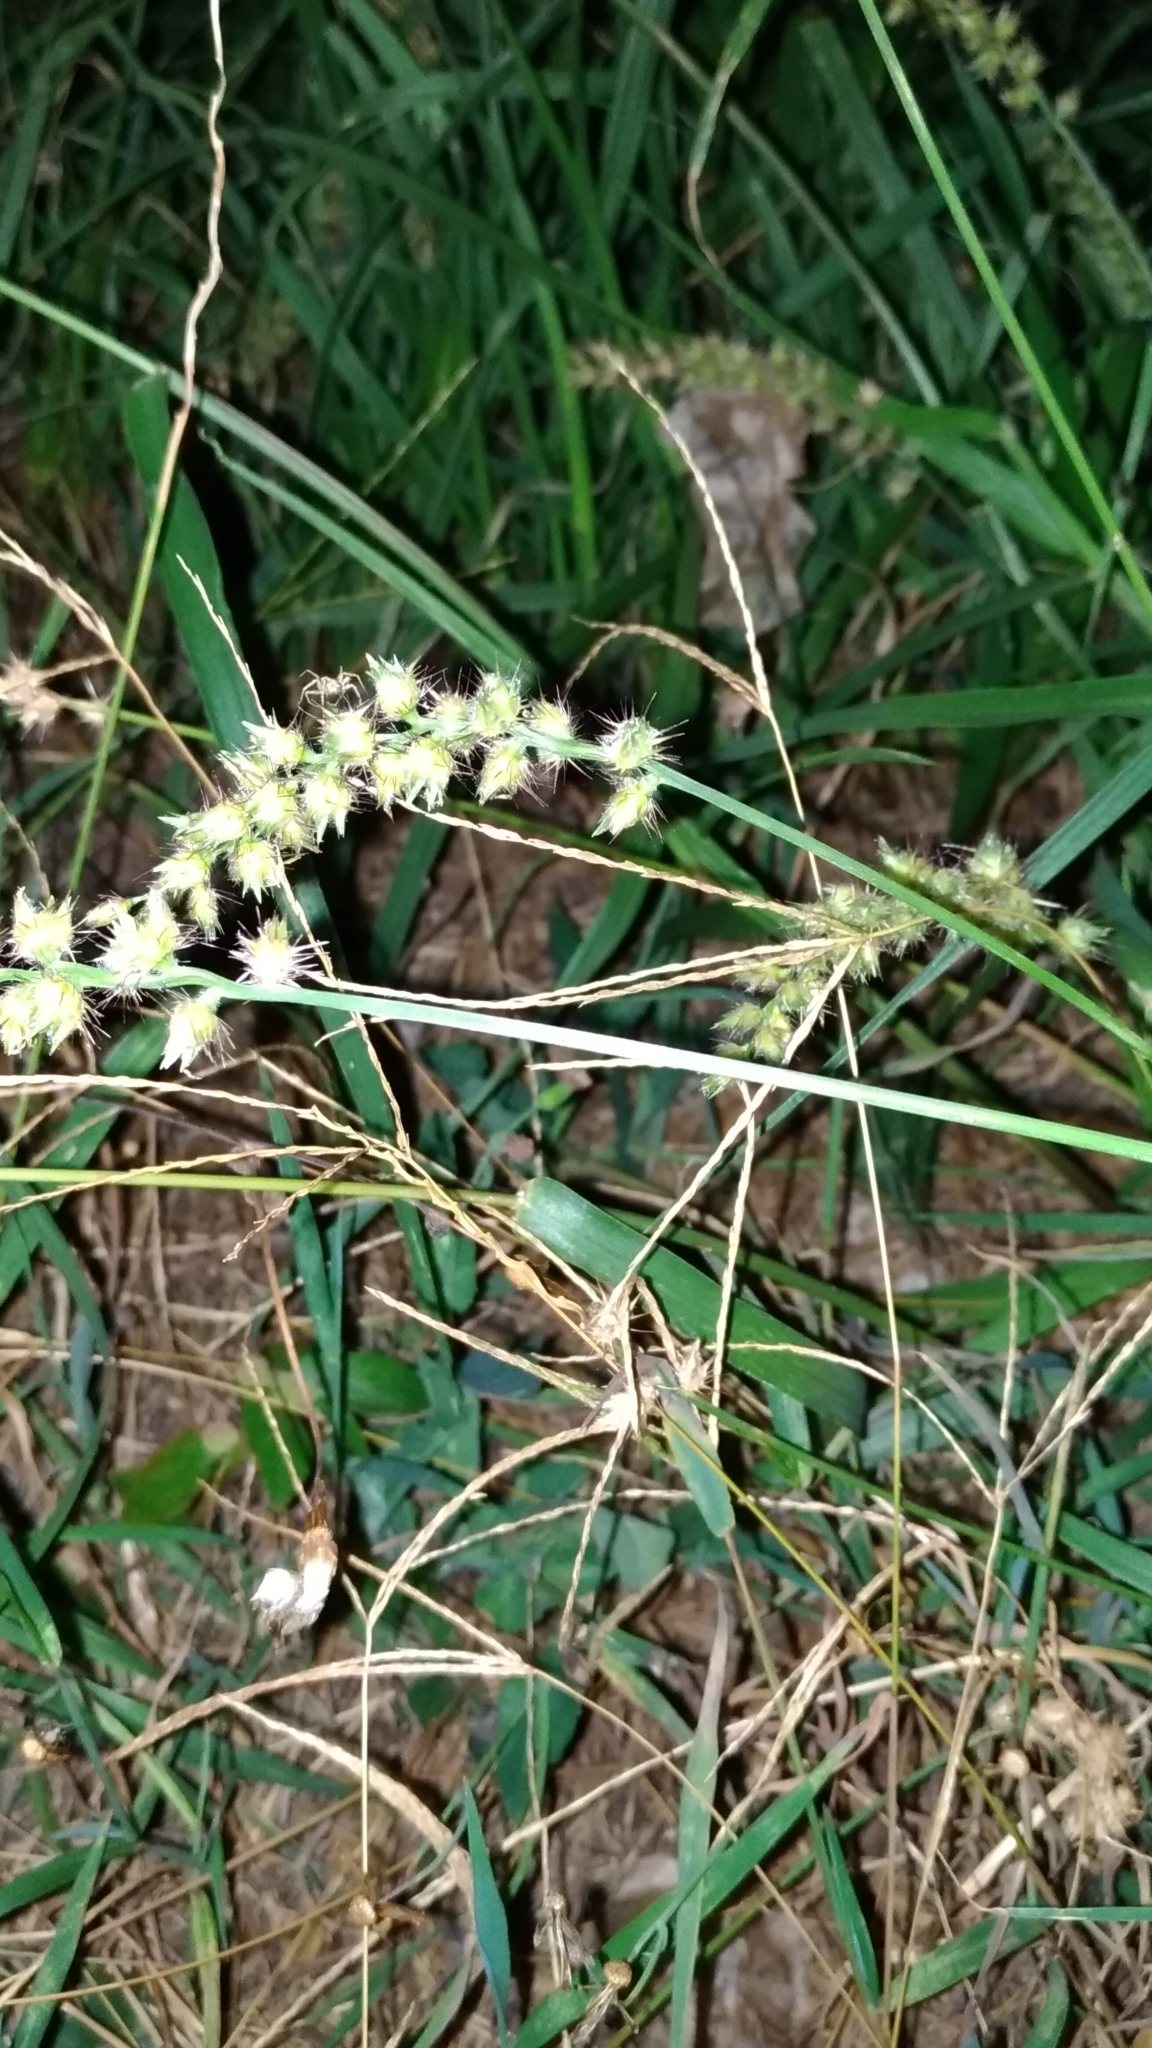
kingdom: Plantae
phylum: Tracheophyta
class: Liliopsida
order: Poales
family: Poaceae
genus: Cenchrus
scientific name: Cenchrus echinatus
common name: Southern sandbur
